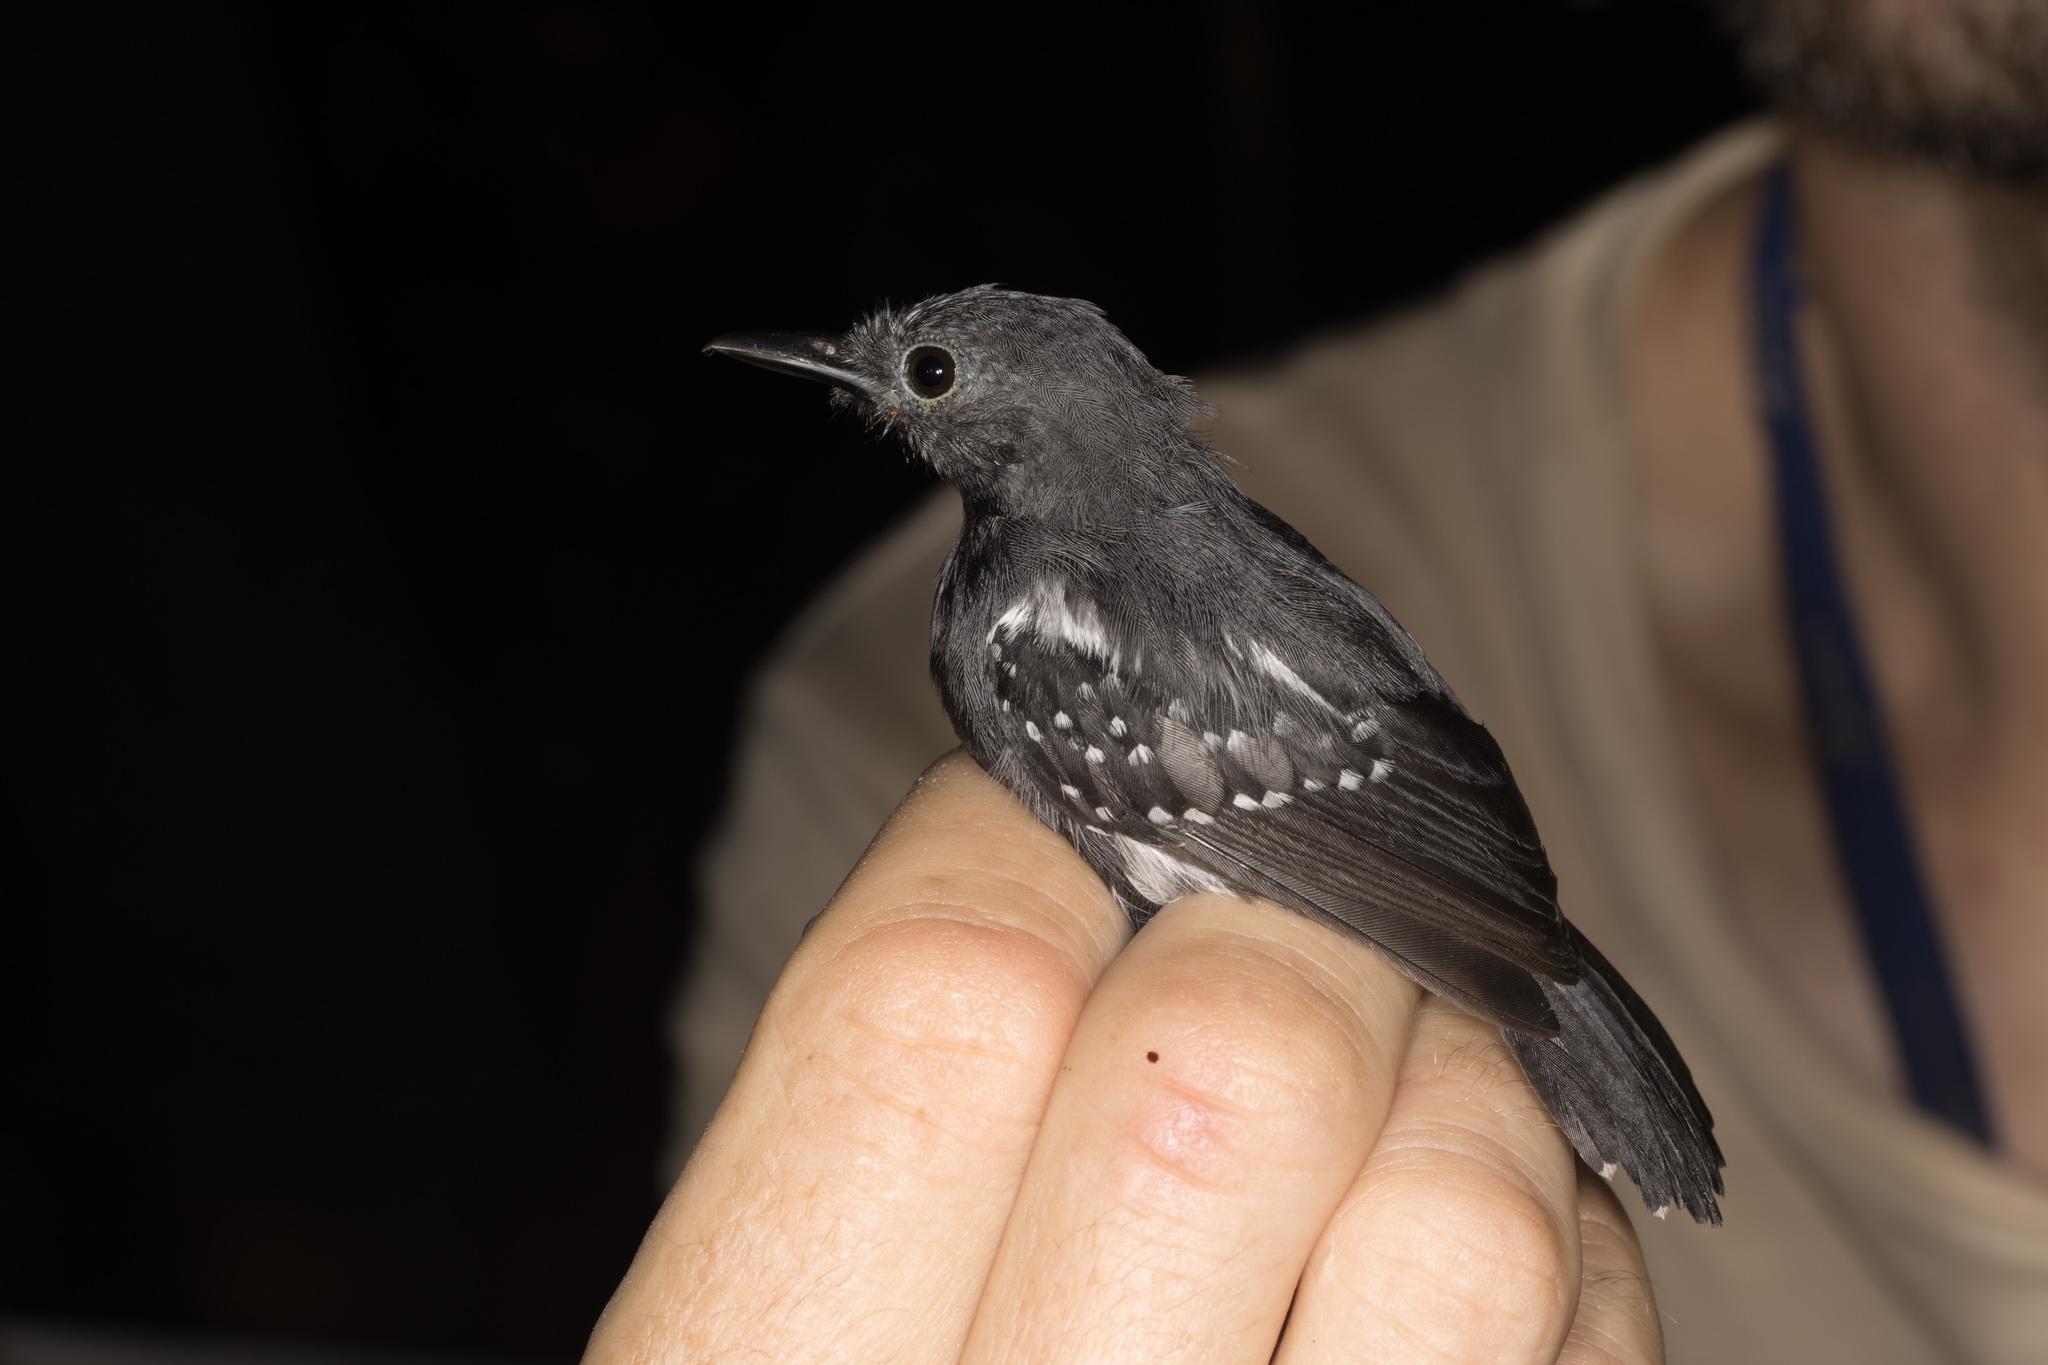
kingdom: Animalia
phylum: Chordata
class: Aves
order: Passeriformes
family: Thamnophilidae
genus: Myrmotherula
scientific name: Myrmotherula axillaris
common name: White-flanked antwren
